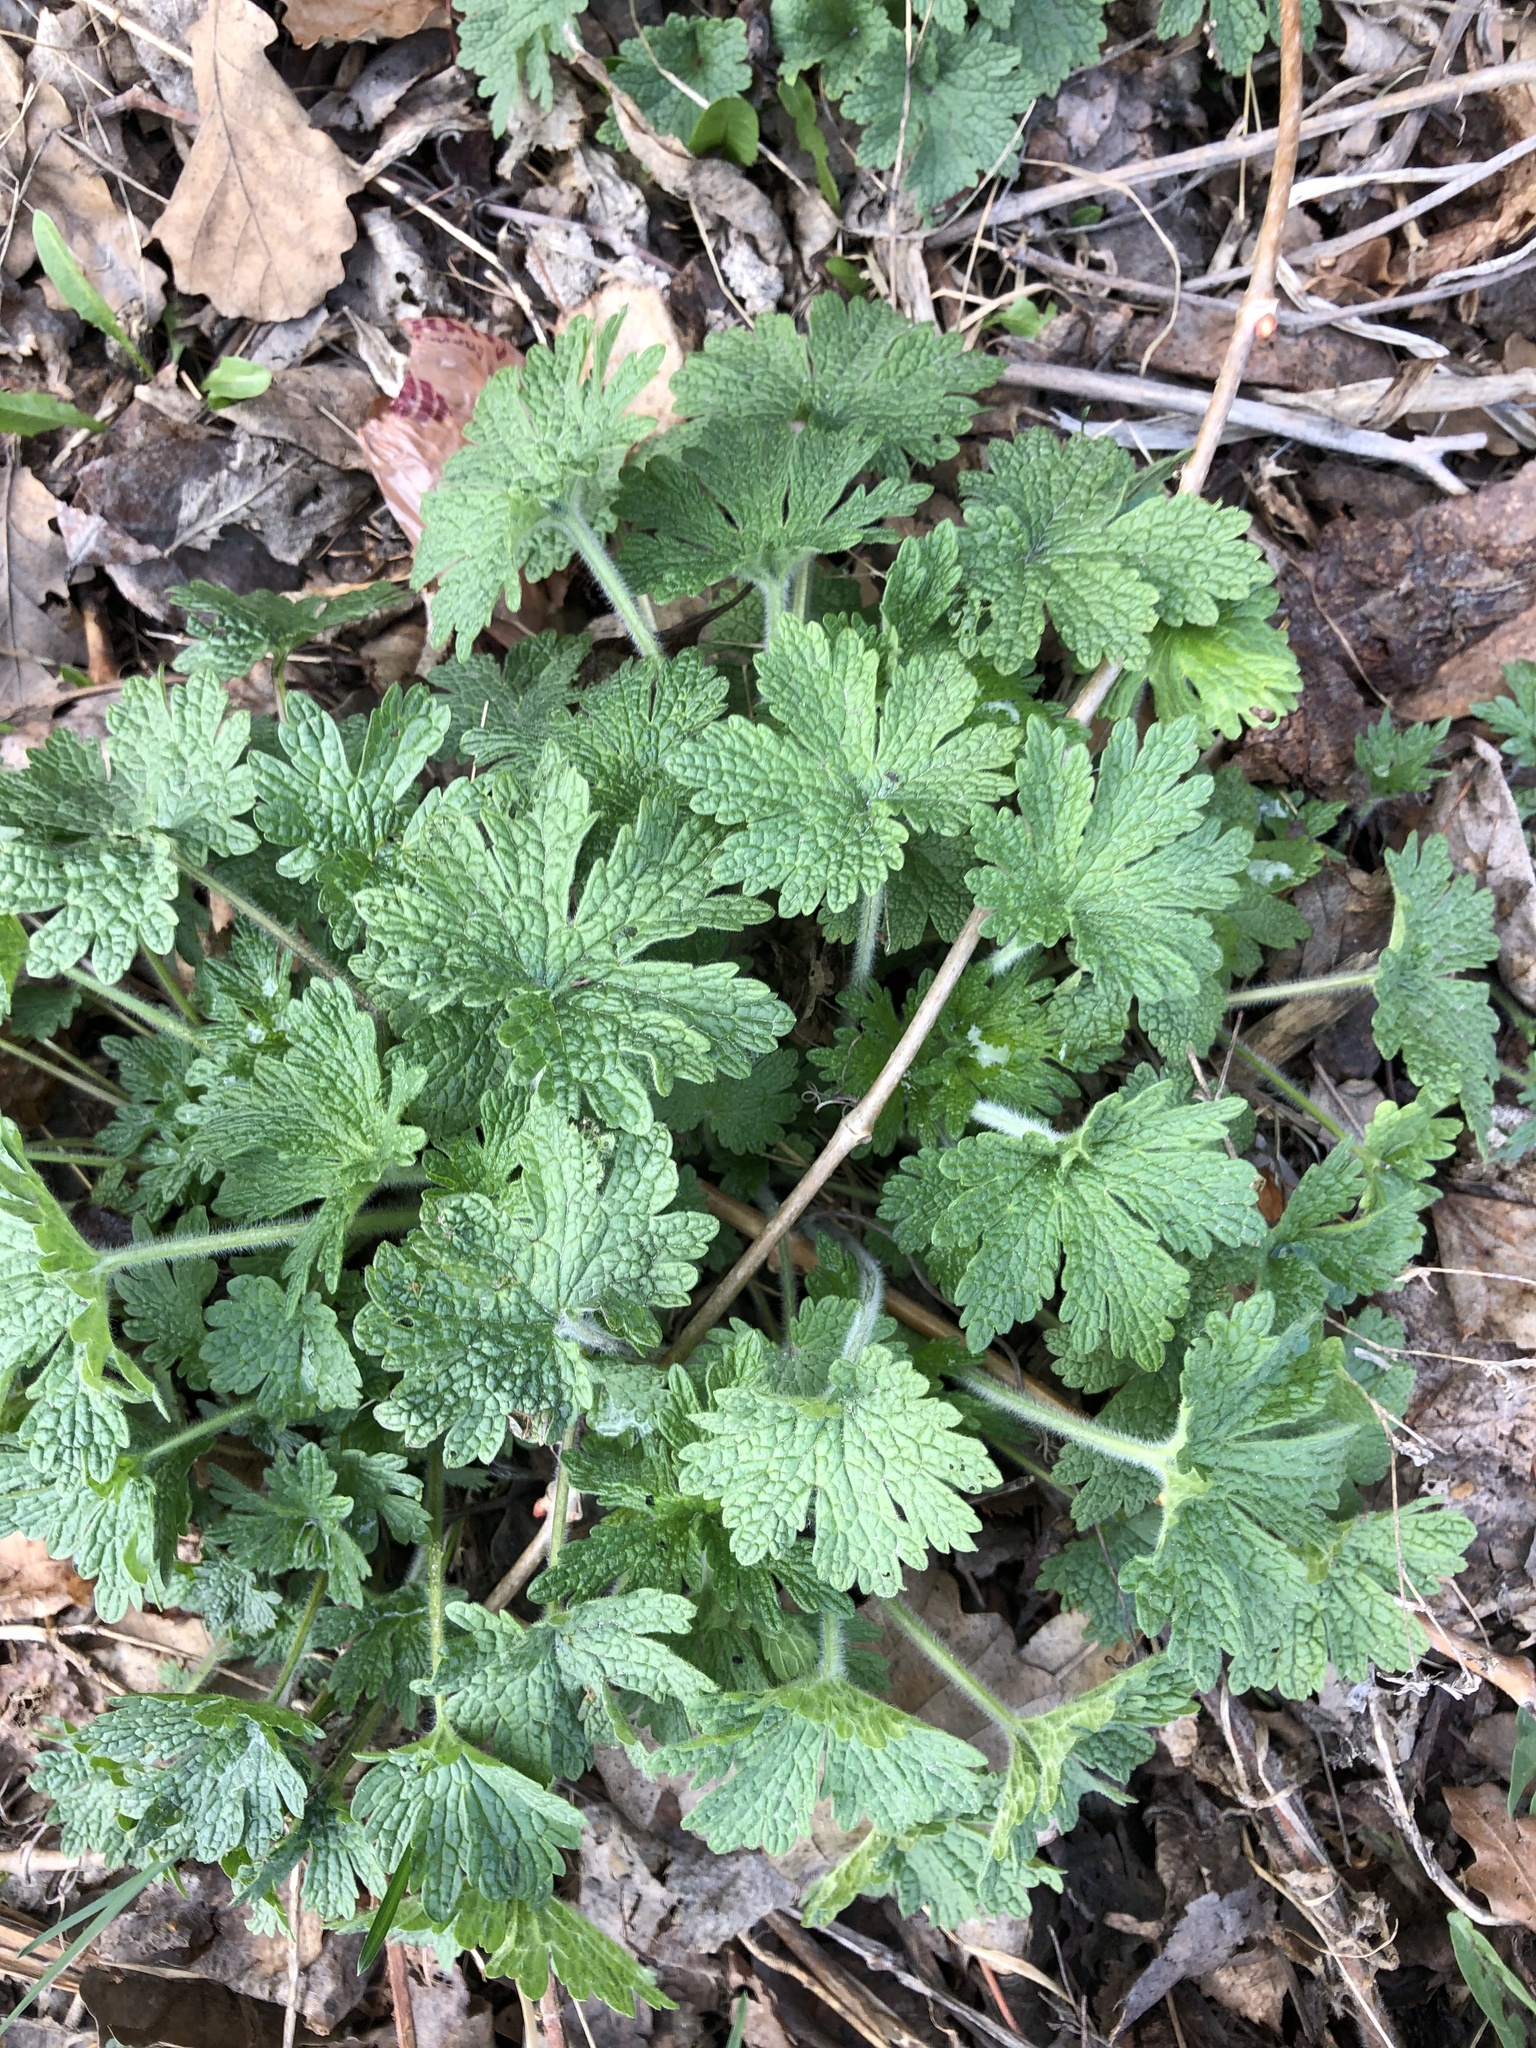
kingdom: Plantae
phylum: Tracheophyta
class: Magnoliopsida
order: Lamiales
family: Lamiaceae
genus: Leonurus
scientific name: Leonurus quinquelobatus
